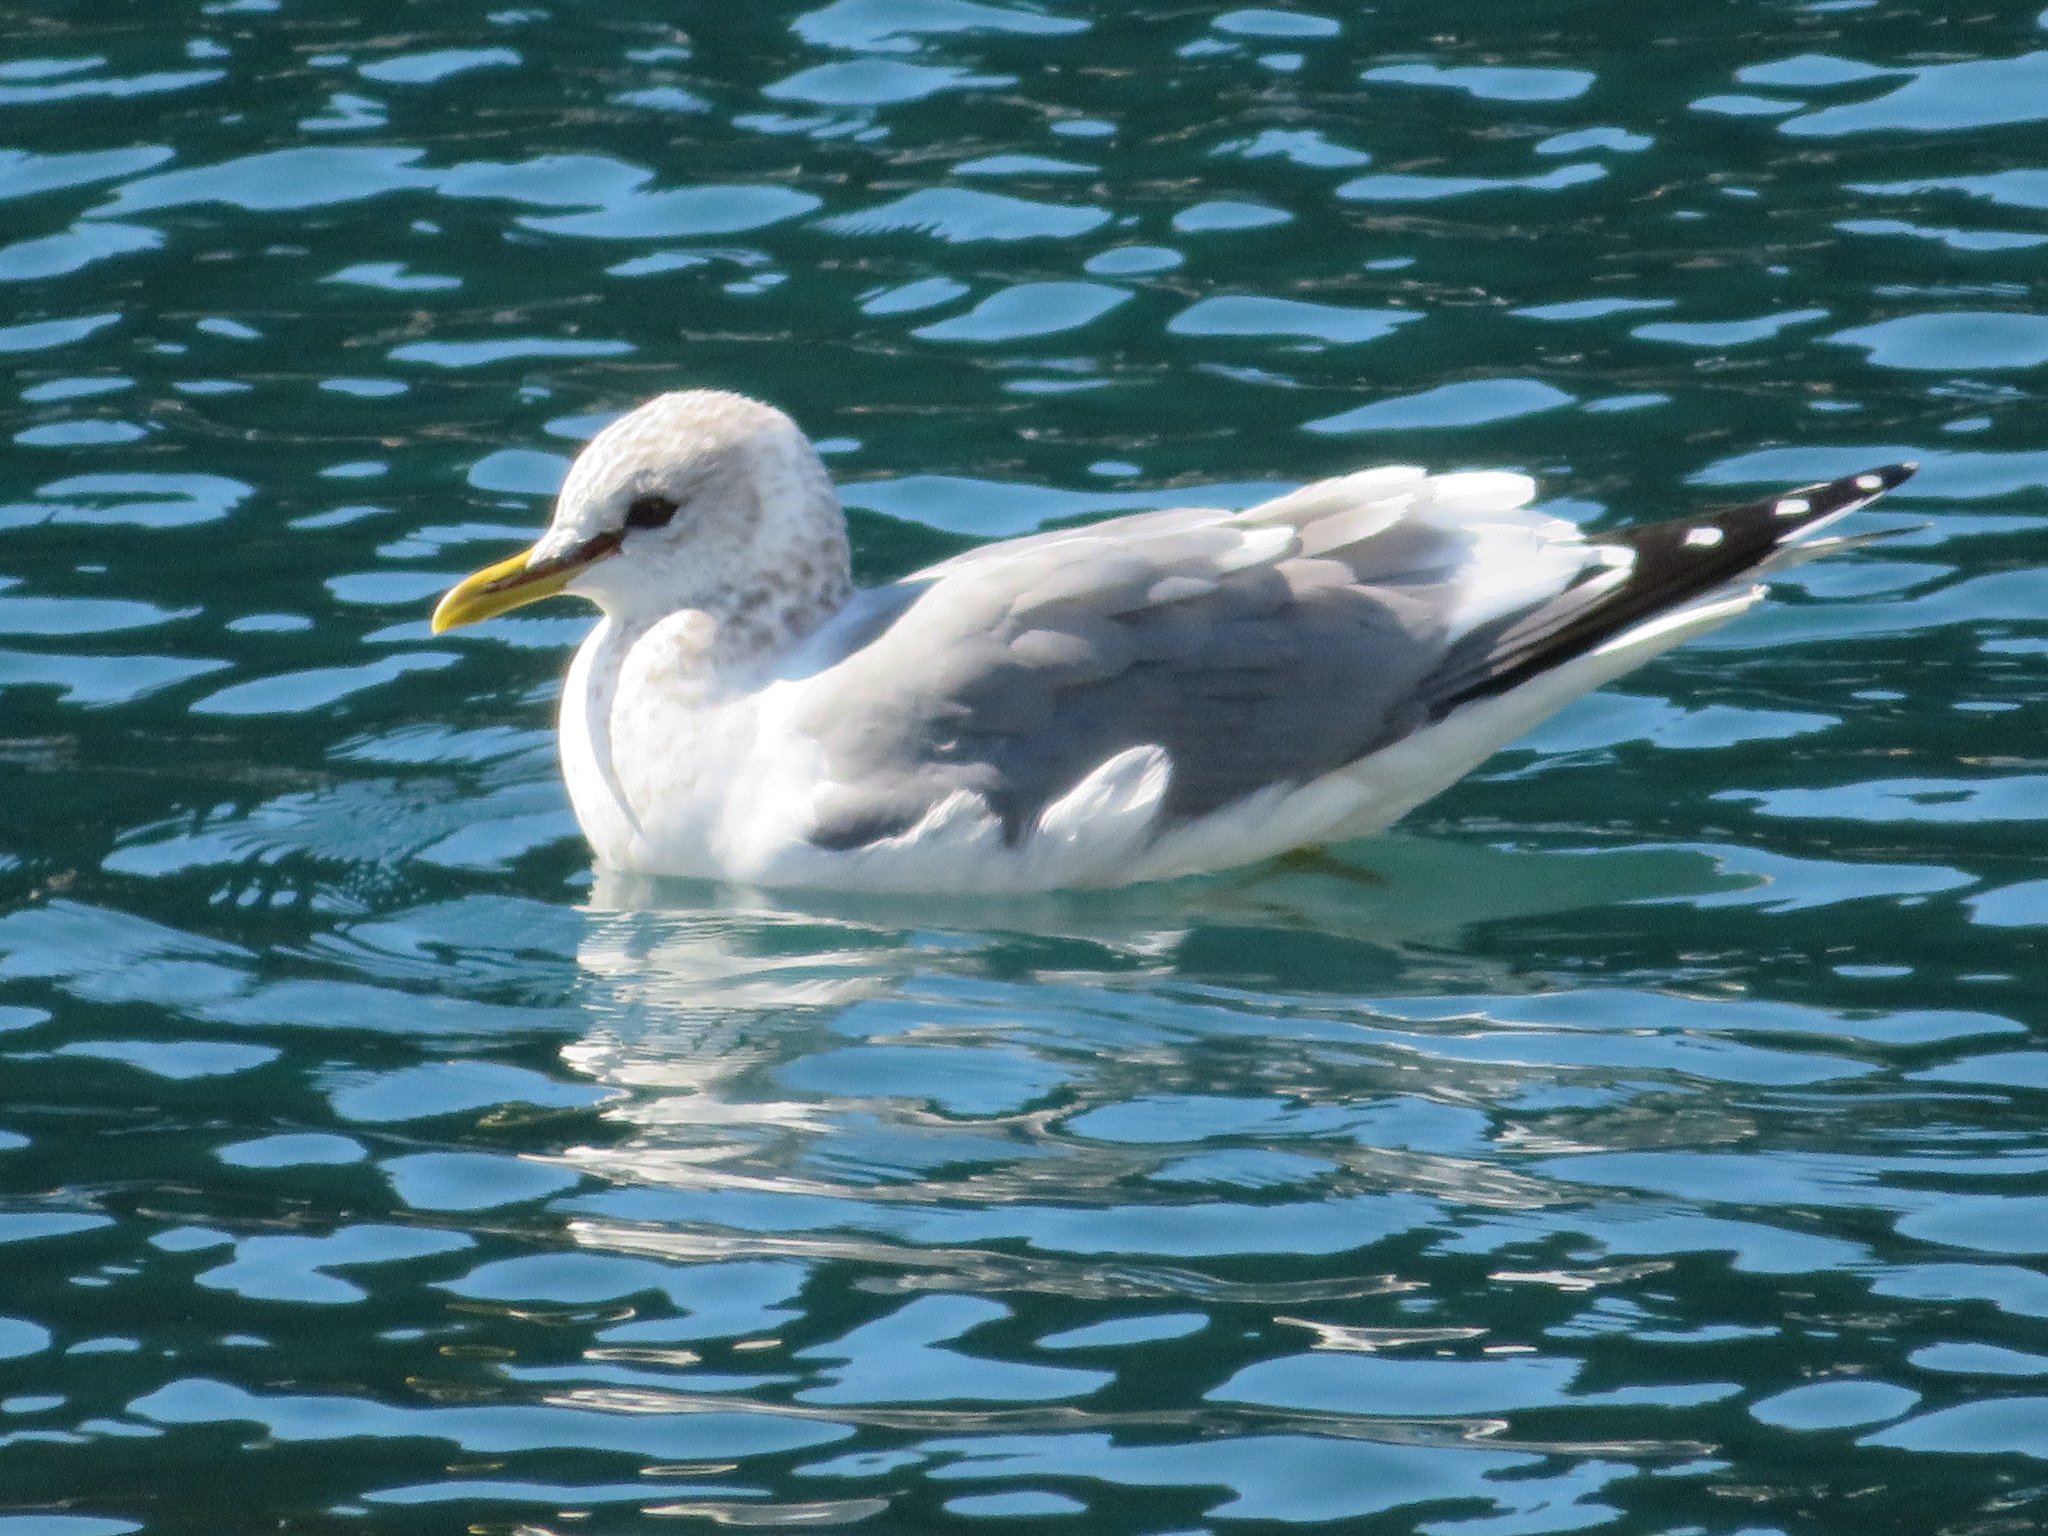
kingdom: Animalia
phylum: Chordata
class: Aves
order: Charadriiformes
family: Laridae
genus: Larus
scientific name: Larus canus
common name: Mew gull
